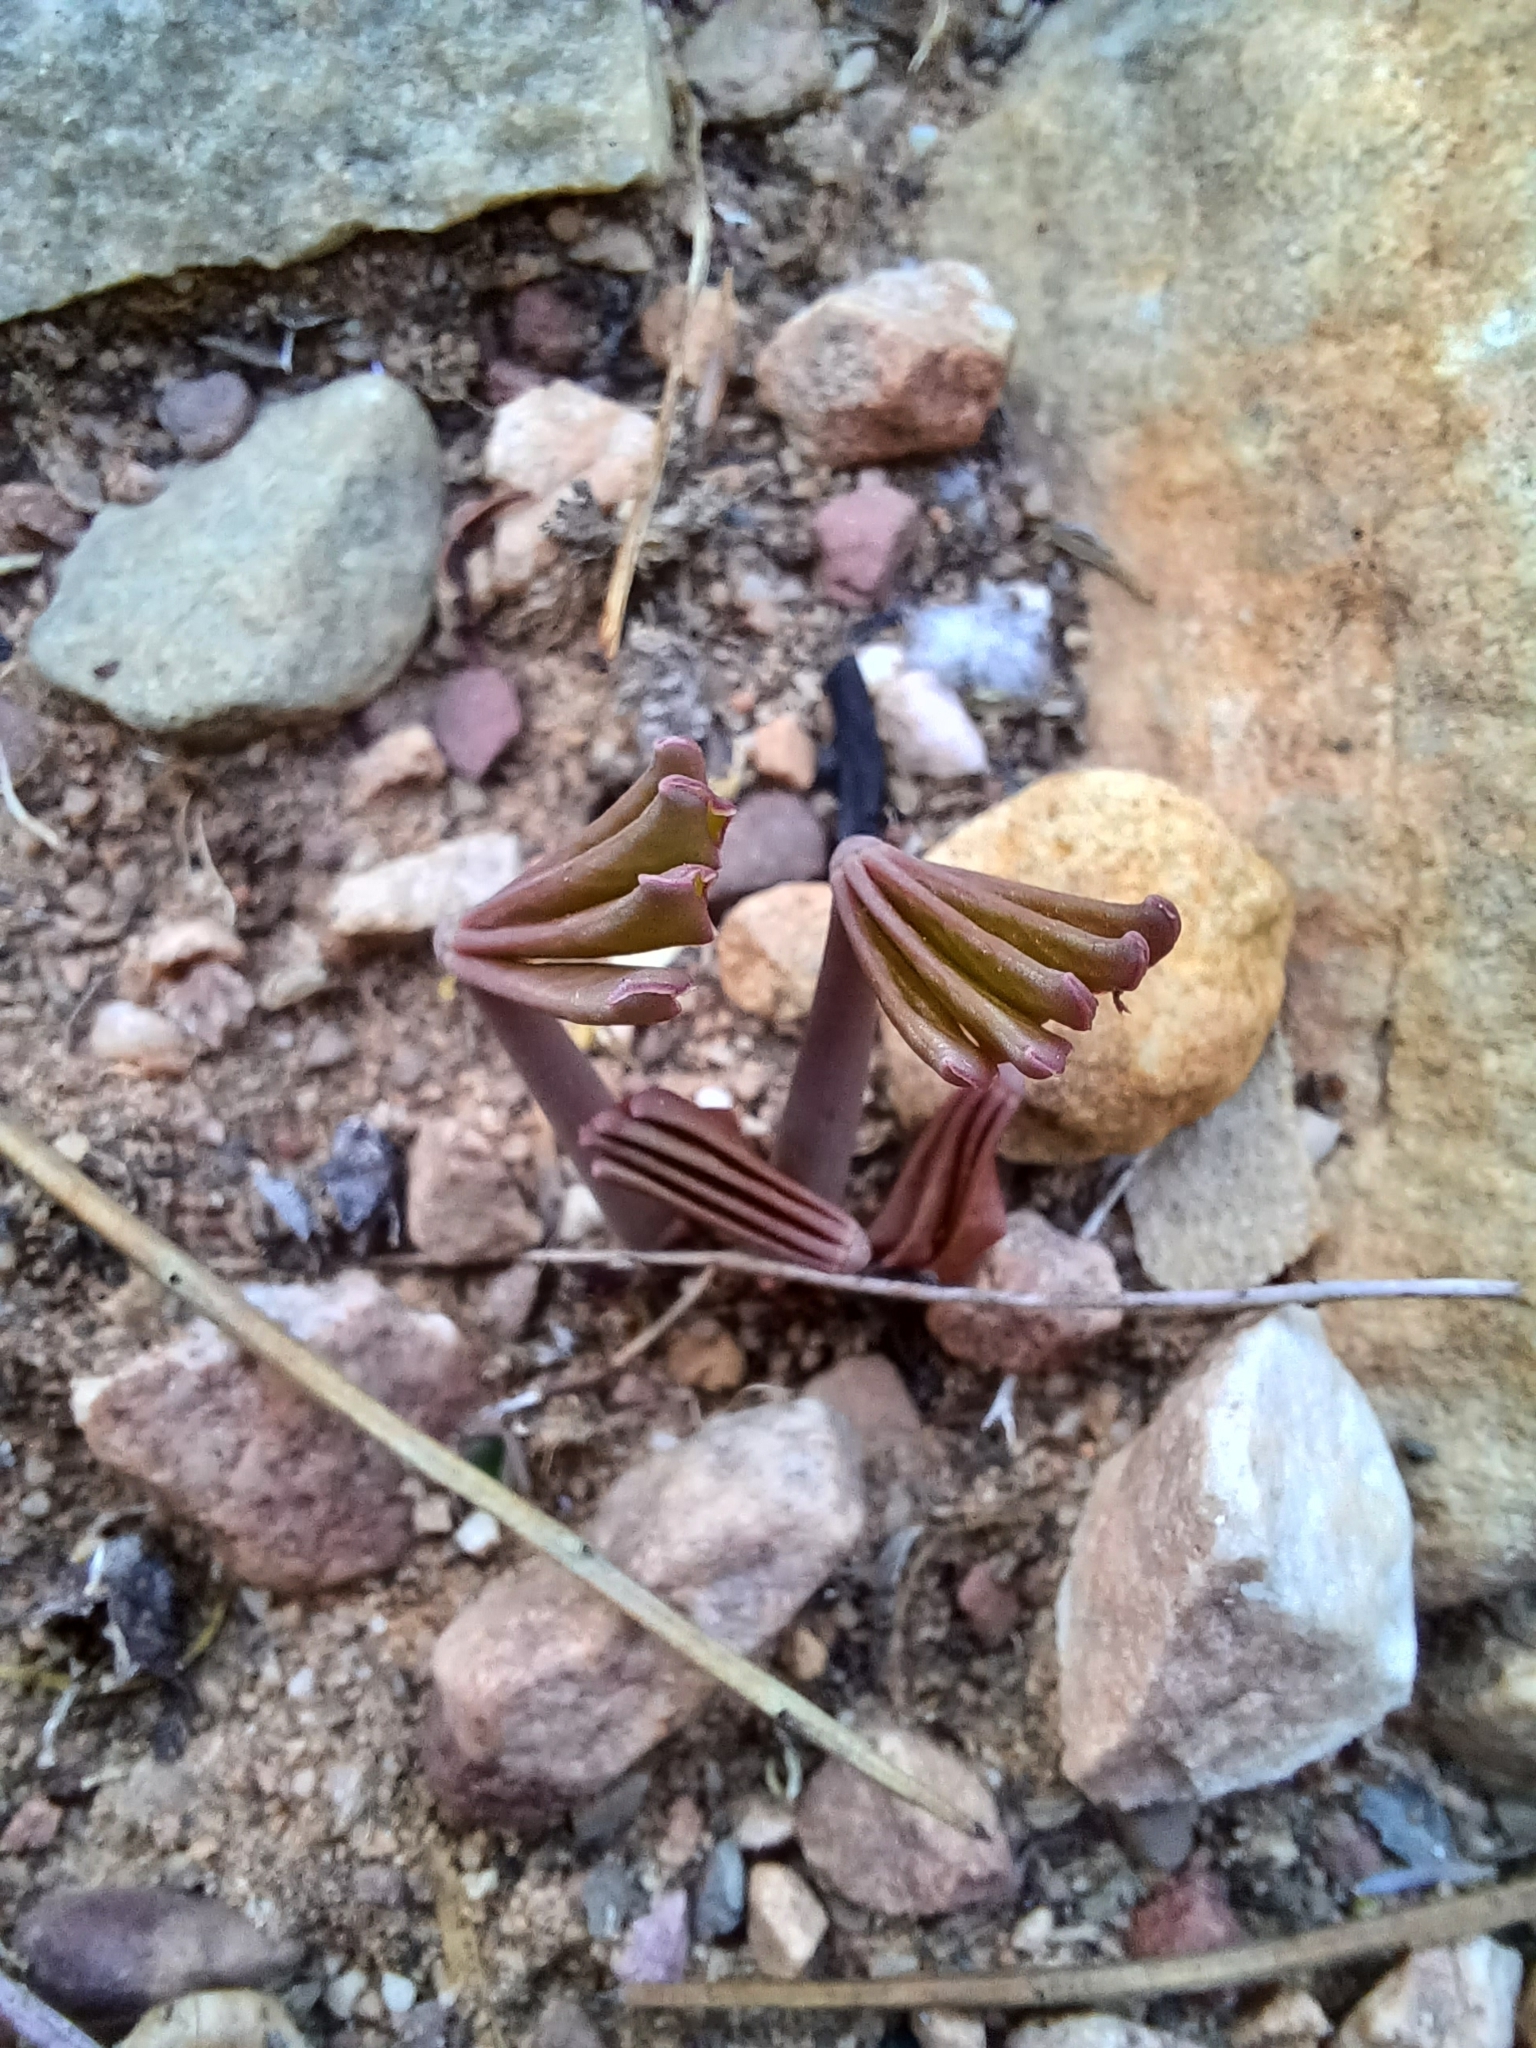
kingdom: Plantae
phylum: Tracheophyta
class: Magnoliopsida
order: Oxalidales
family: Oxalidaceae
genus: Oxalis
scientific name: Oxalis flava
